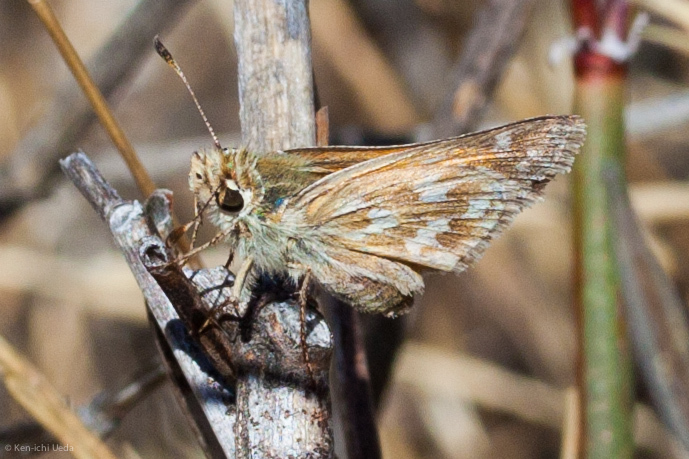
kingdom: Animalia
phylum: Arthropoda
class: Insecta
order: Lepidoptera
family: Hesperiidae
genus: Hesperia
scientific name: Hesperia lindseyi
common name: Lindsey's skipper
